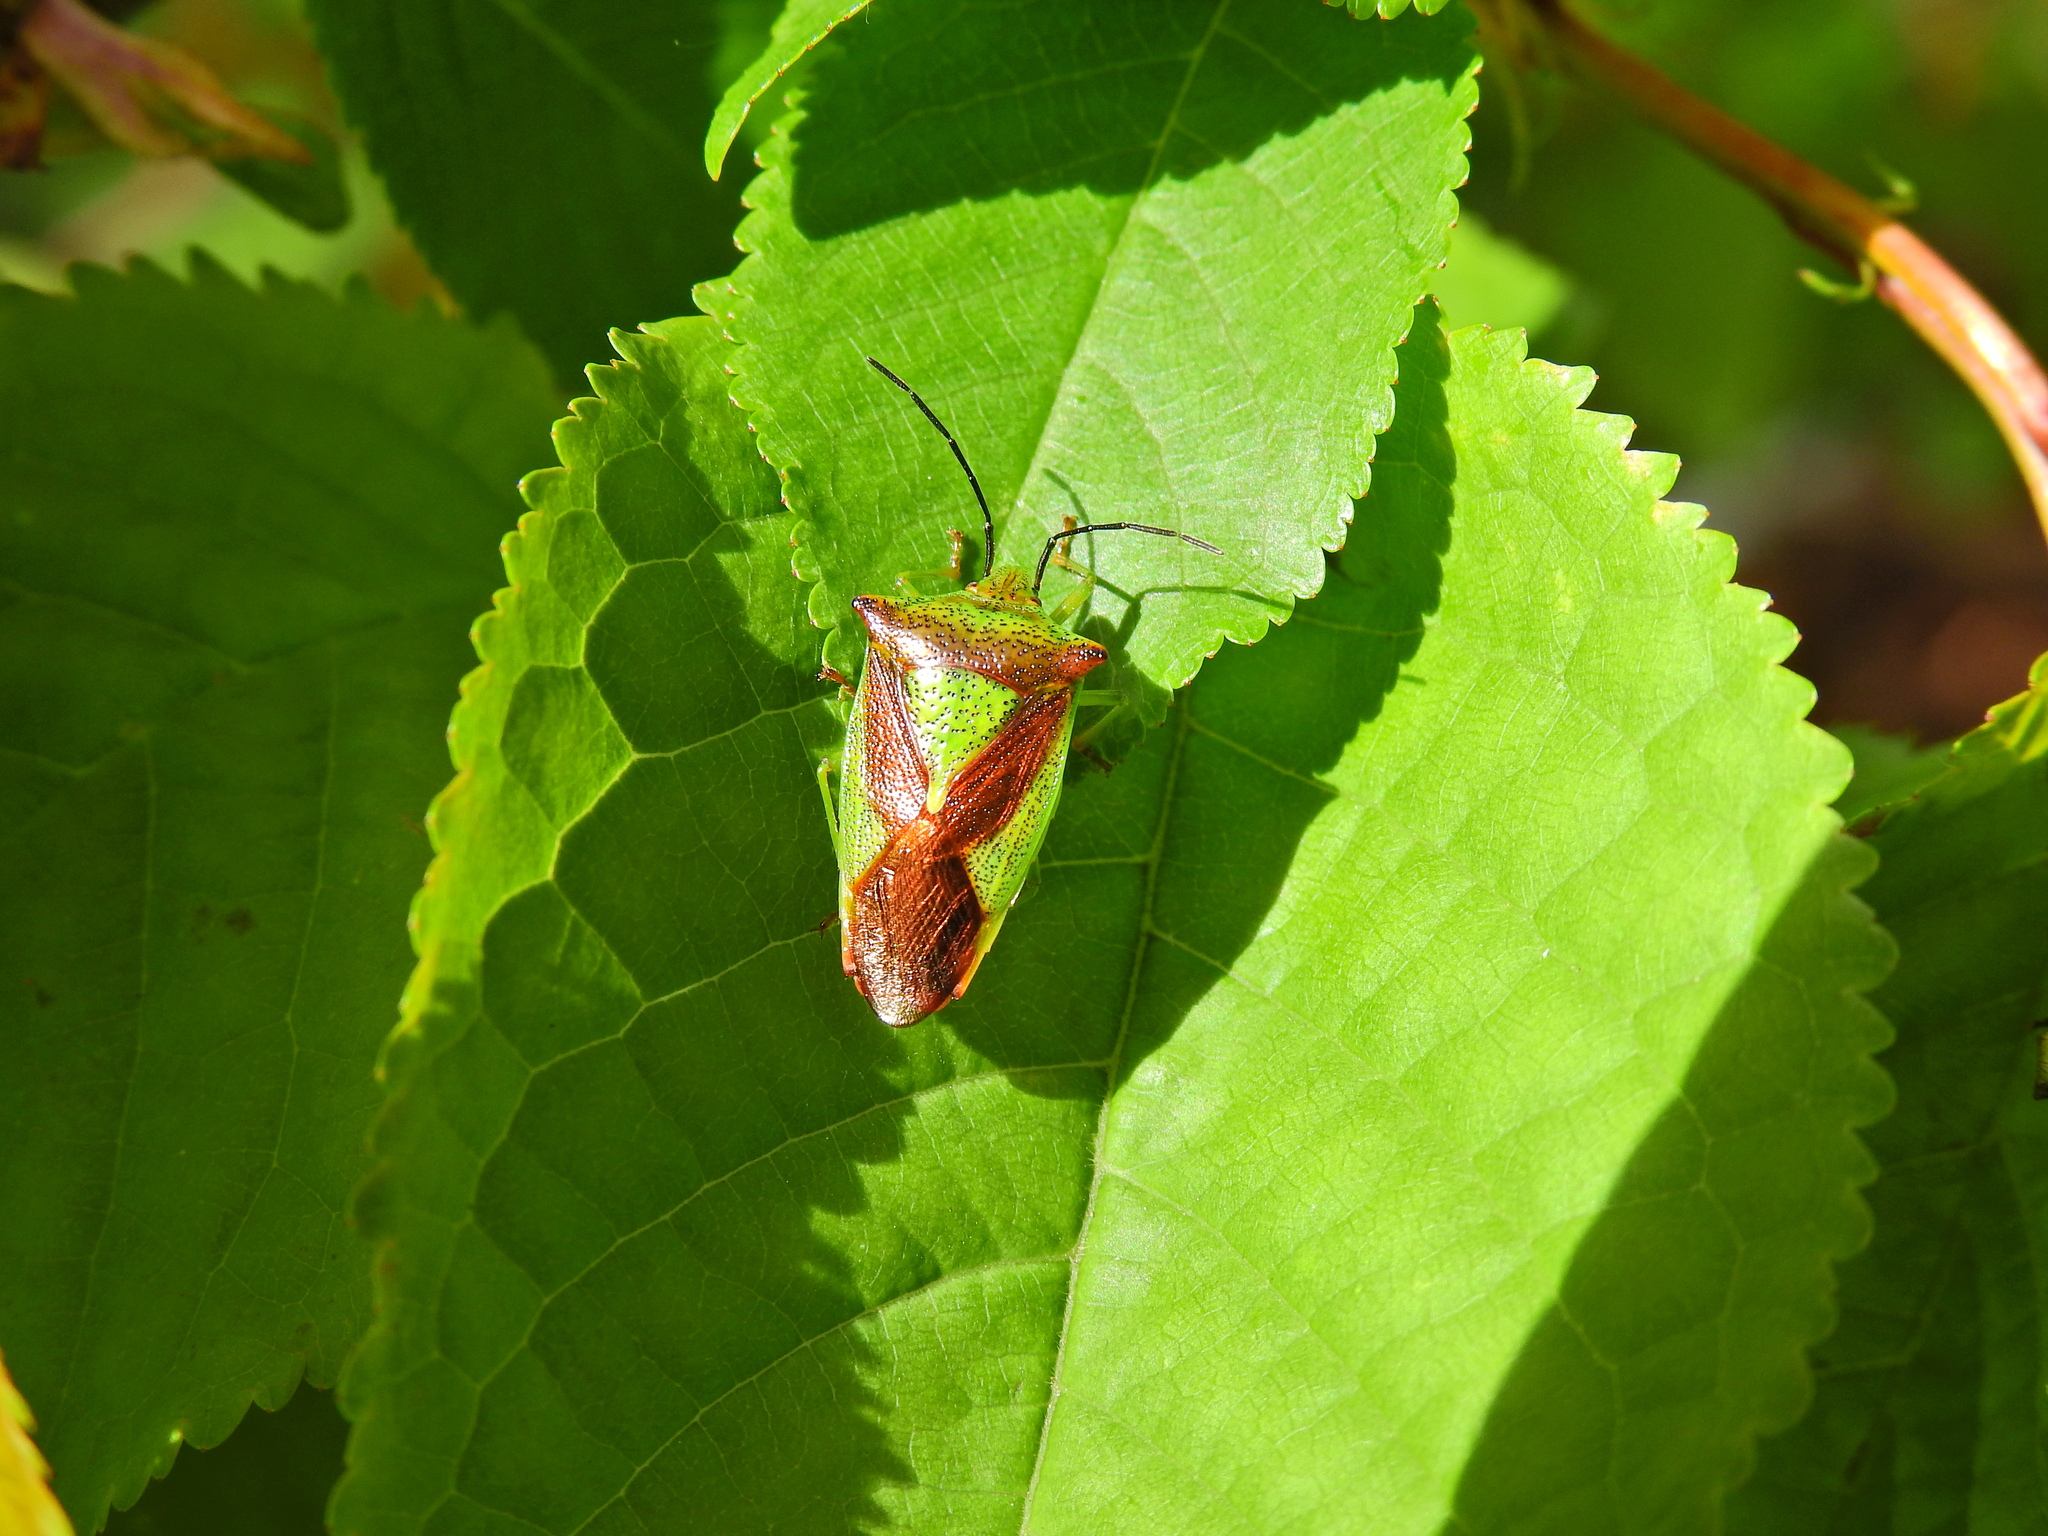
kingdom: Animalia
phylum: Arthropoda
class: Insecta
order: Hemiptera
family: Acanthosomatidae
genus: Acanthosoma
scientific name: Acanthosoma haemorrhoidale
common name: Hawthorn shieldbug
